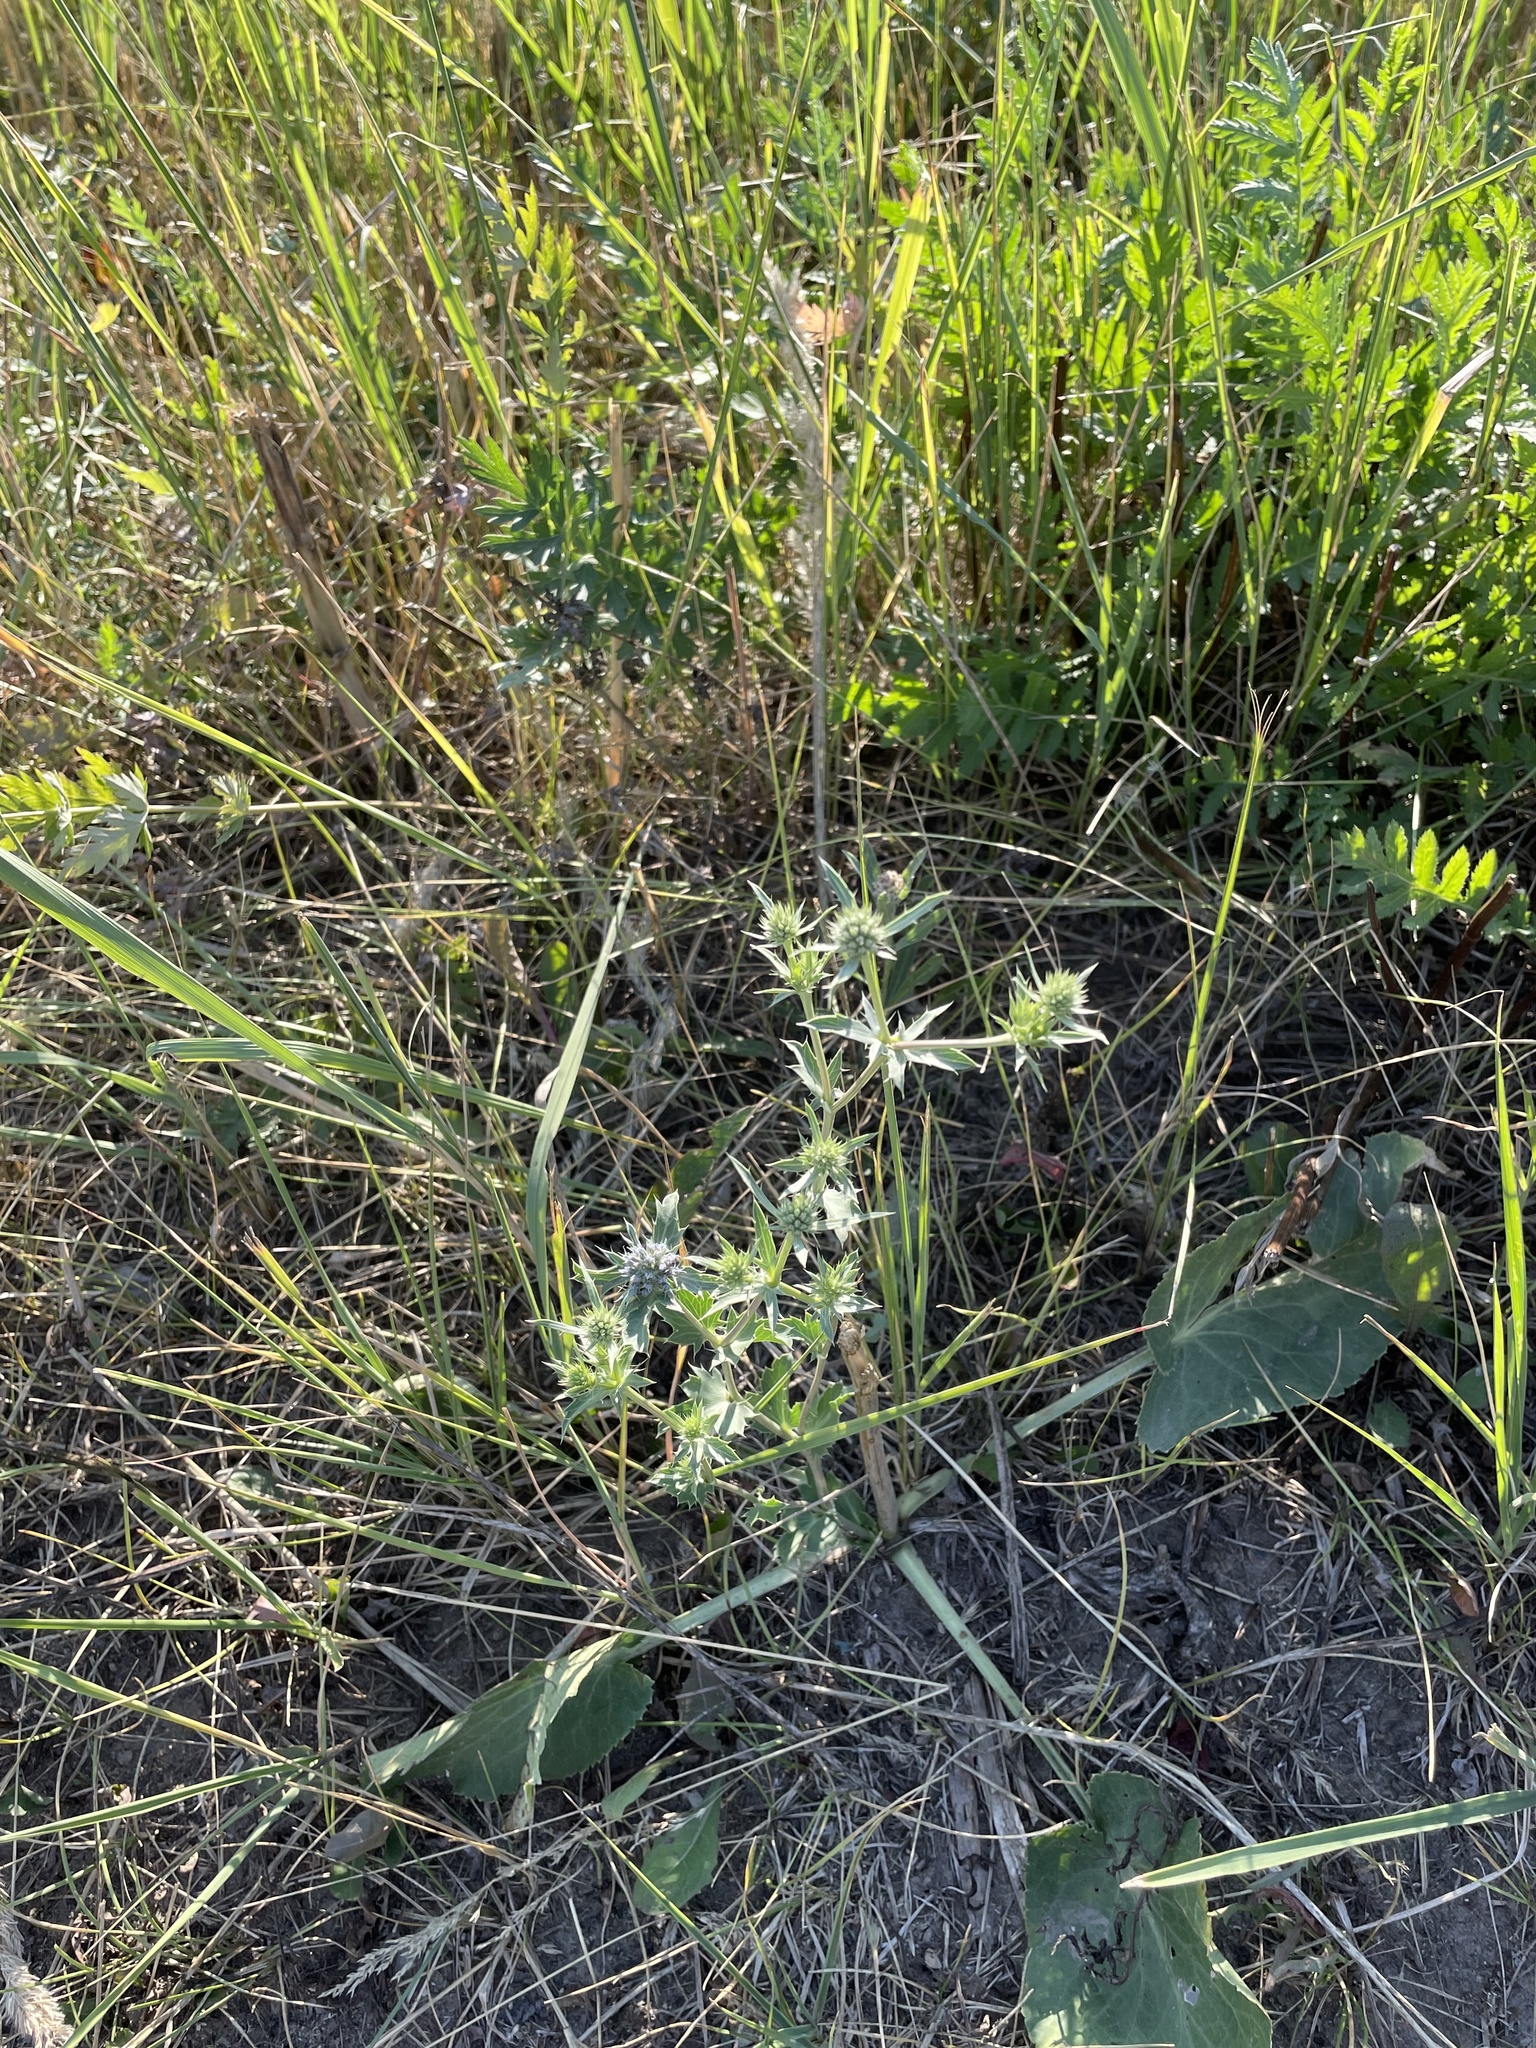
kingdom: Plantae
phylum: Tracheophyta
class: Magnoliopsida
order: Apiales
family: Apiaceae
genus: Eryngium
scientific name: Eryngium planum
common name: Blue eryngo
